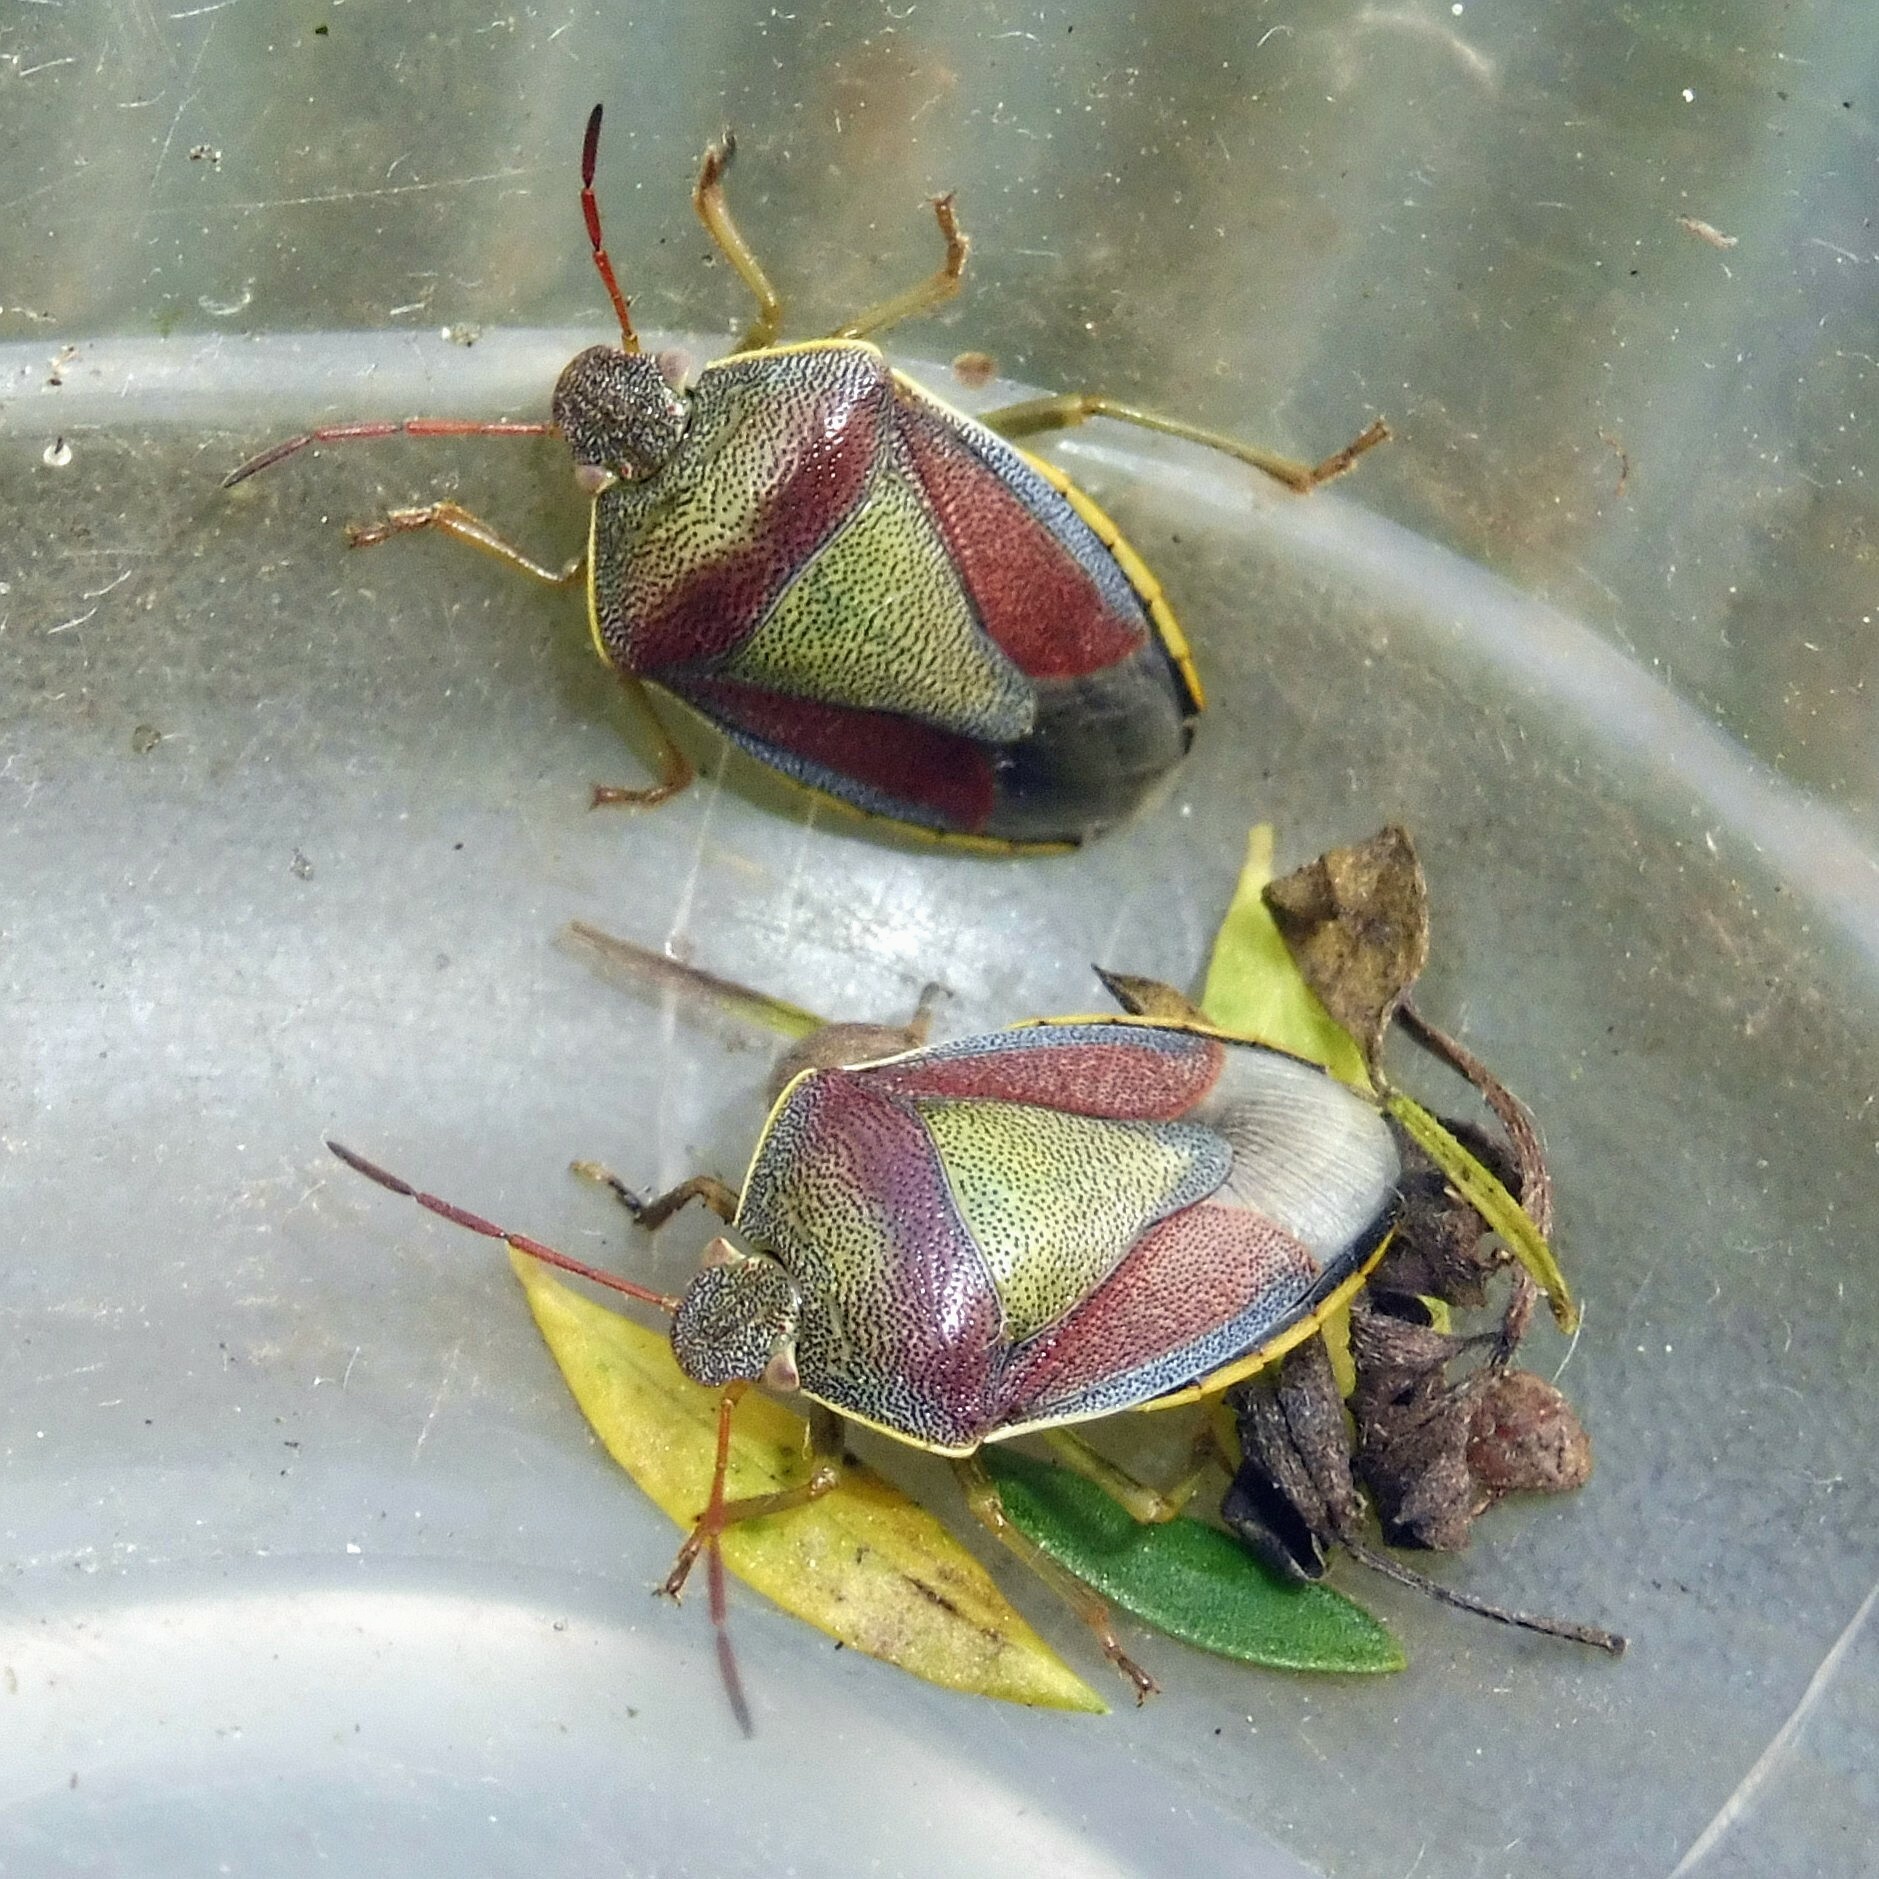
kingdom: Animalia
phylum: Arthropoda
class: Insecta
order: Hemiptera
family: Pentatomidae
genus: Piezodorus
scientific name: Piezodorus lituratus
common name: Stink bug
